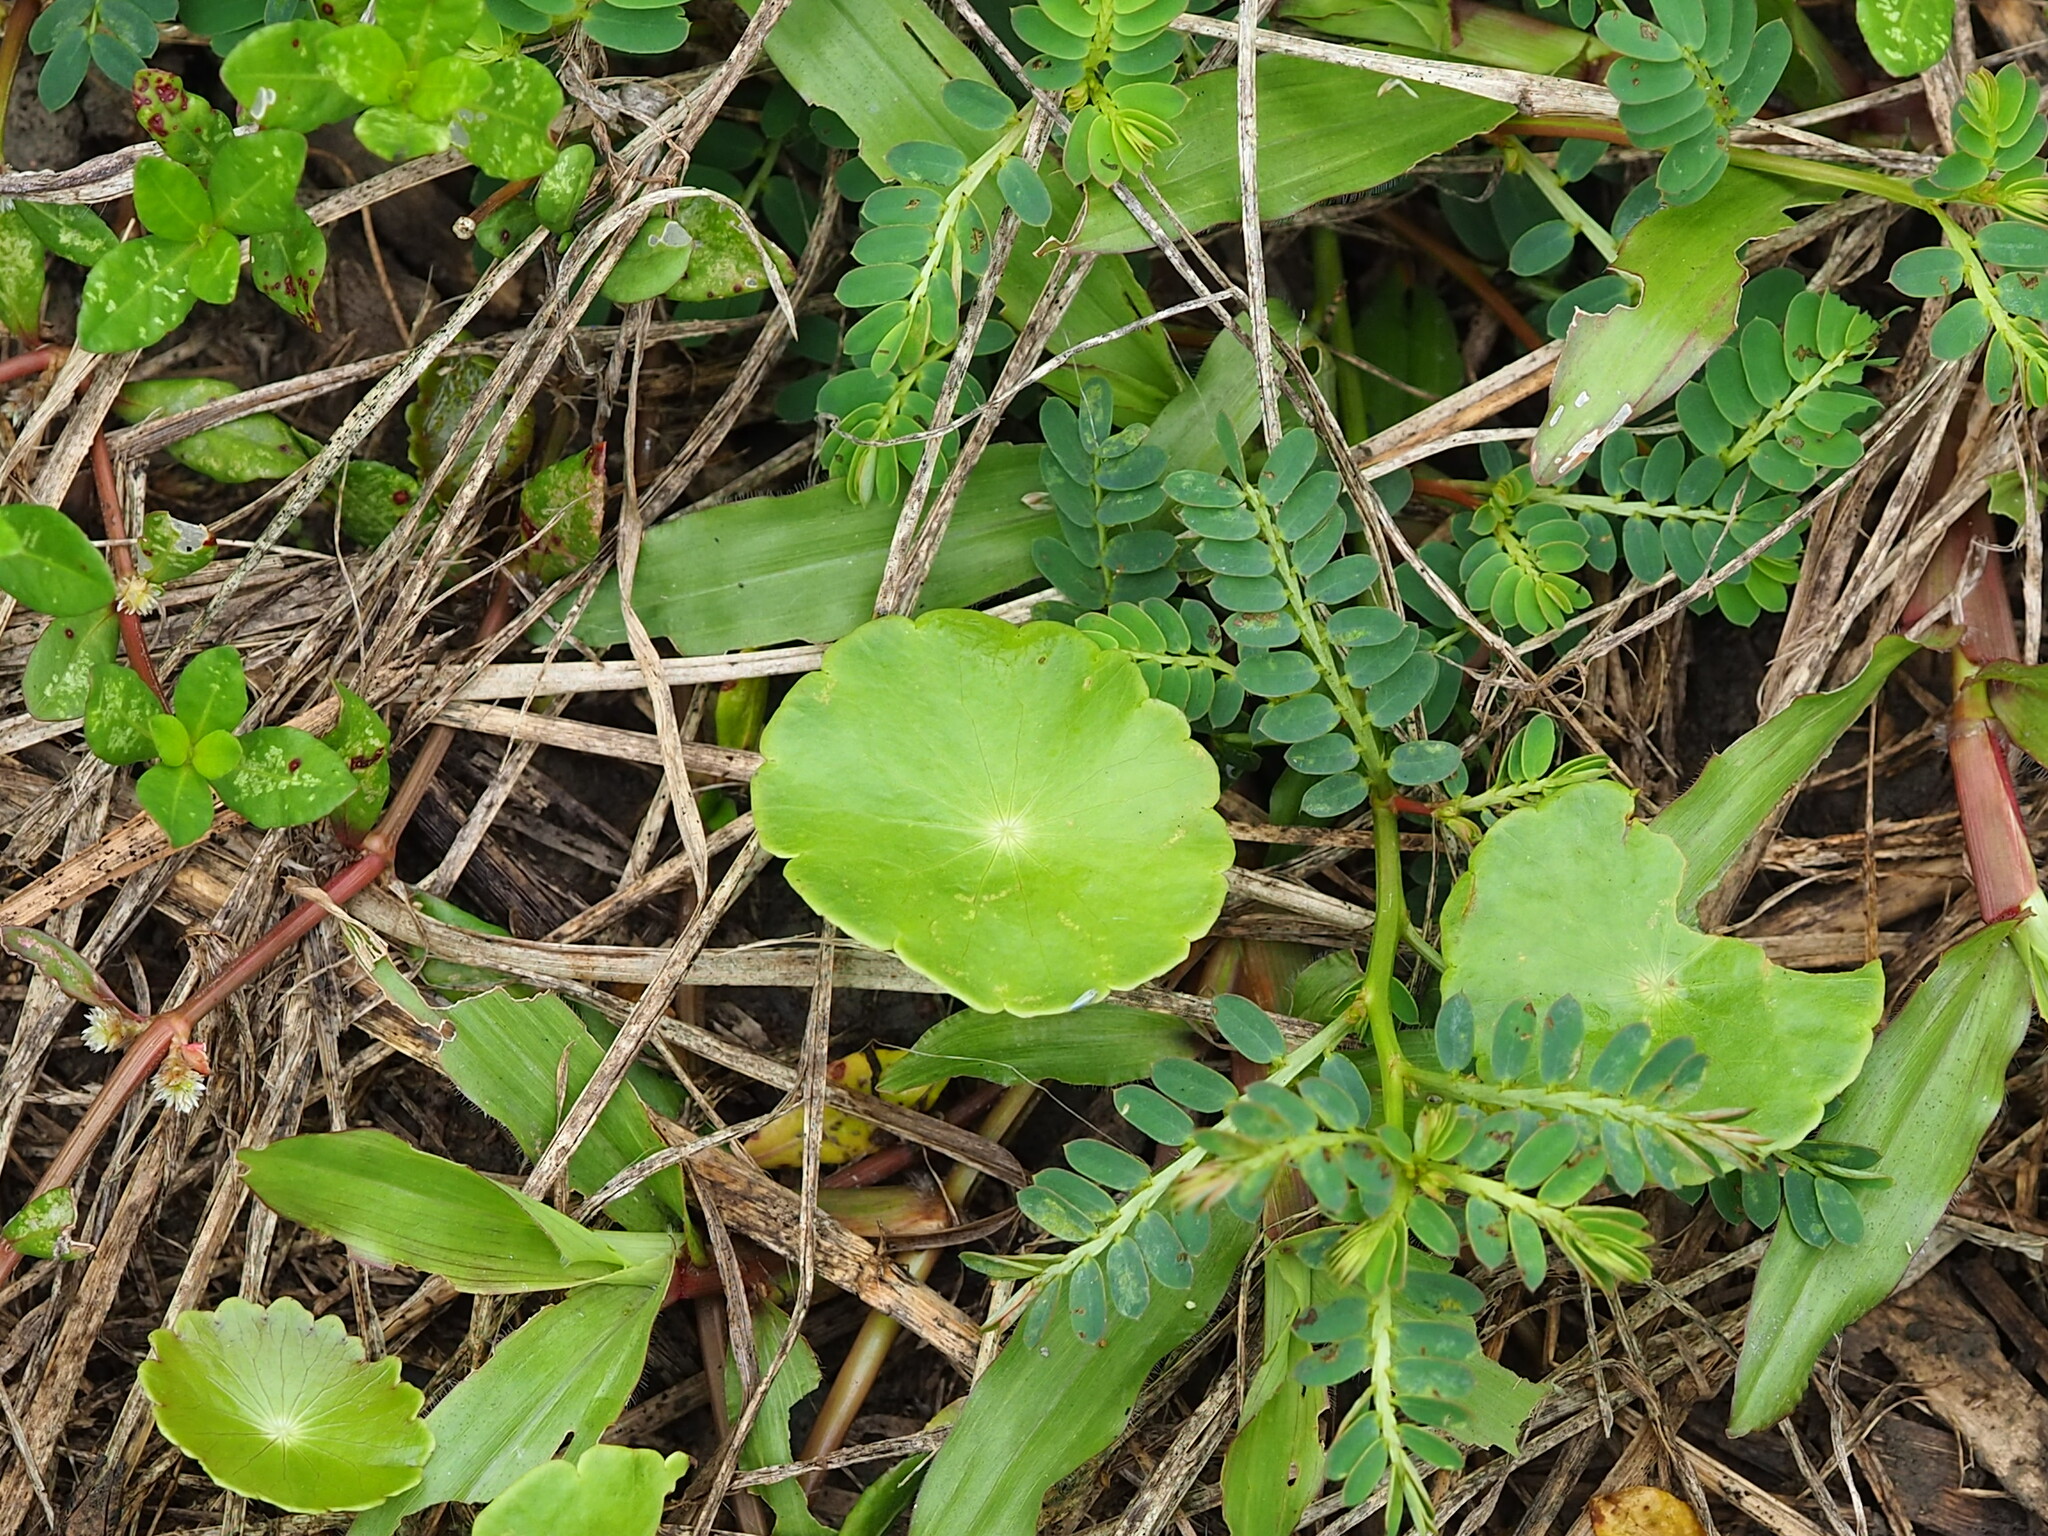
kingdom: Plantae
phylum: Tracheophyta
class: Magnoliopsida
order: Apiales
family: Araliaceae
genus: Hydrocotyle
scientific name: Hydrocotyle verticillata
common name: Whorled marshpennywort
